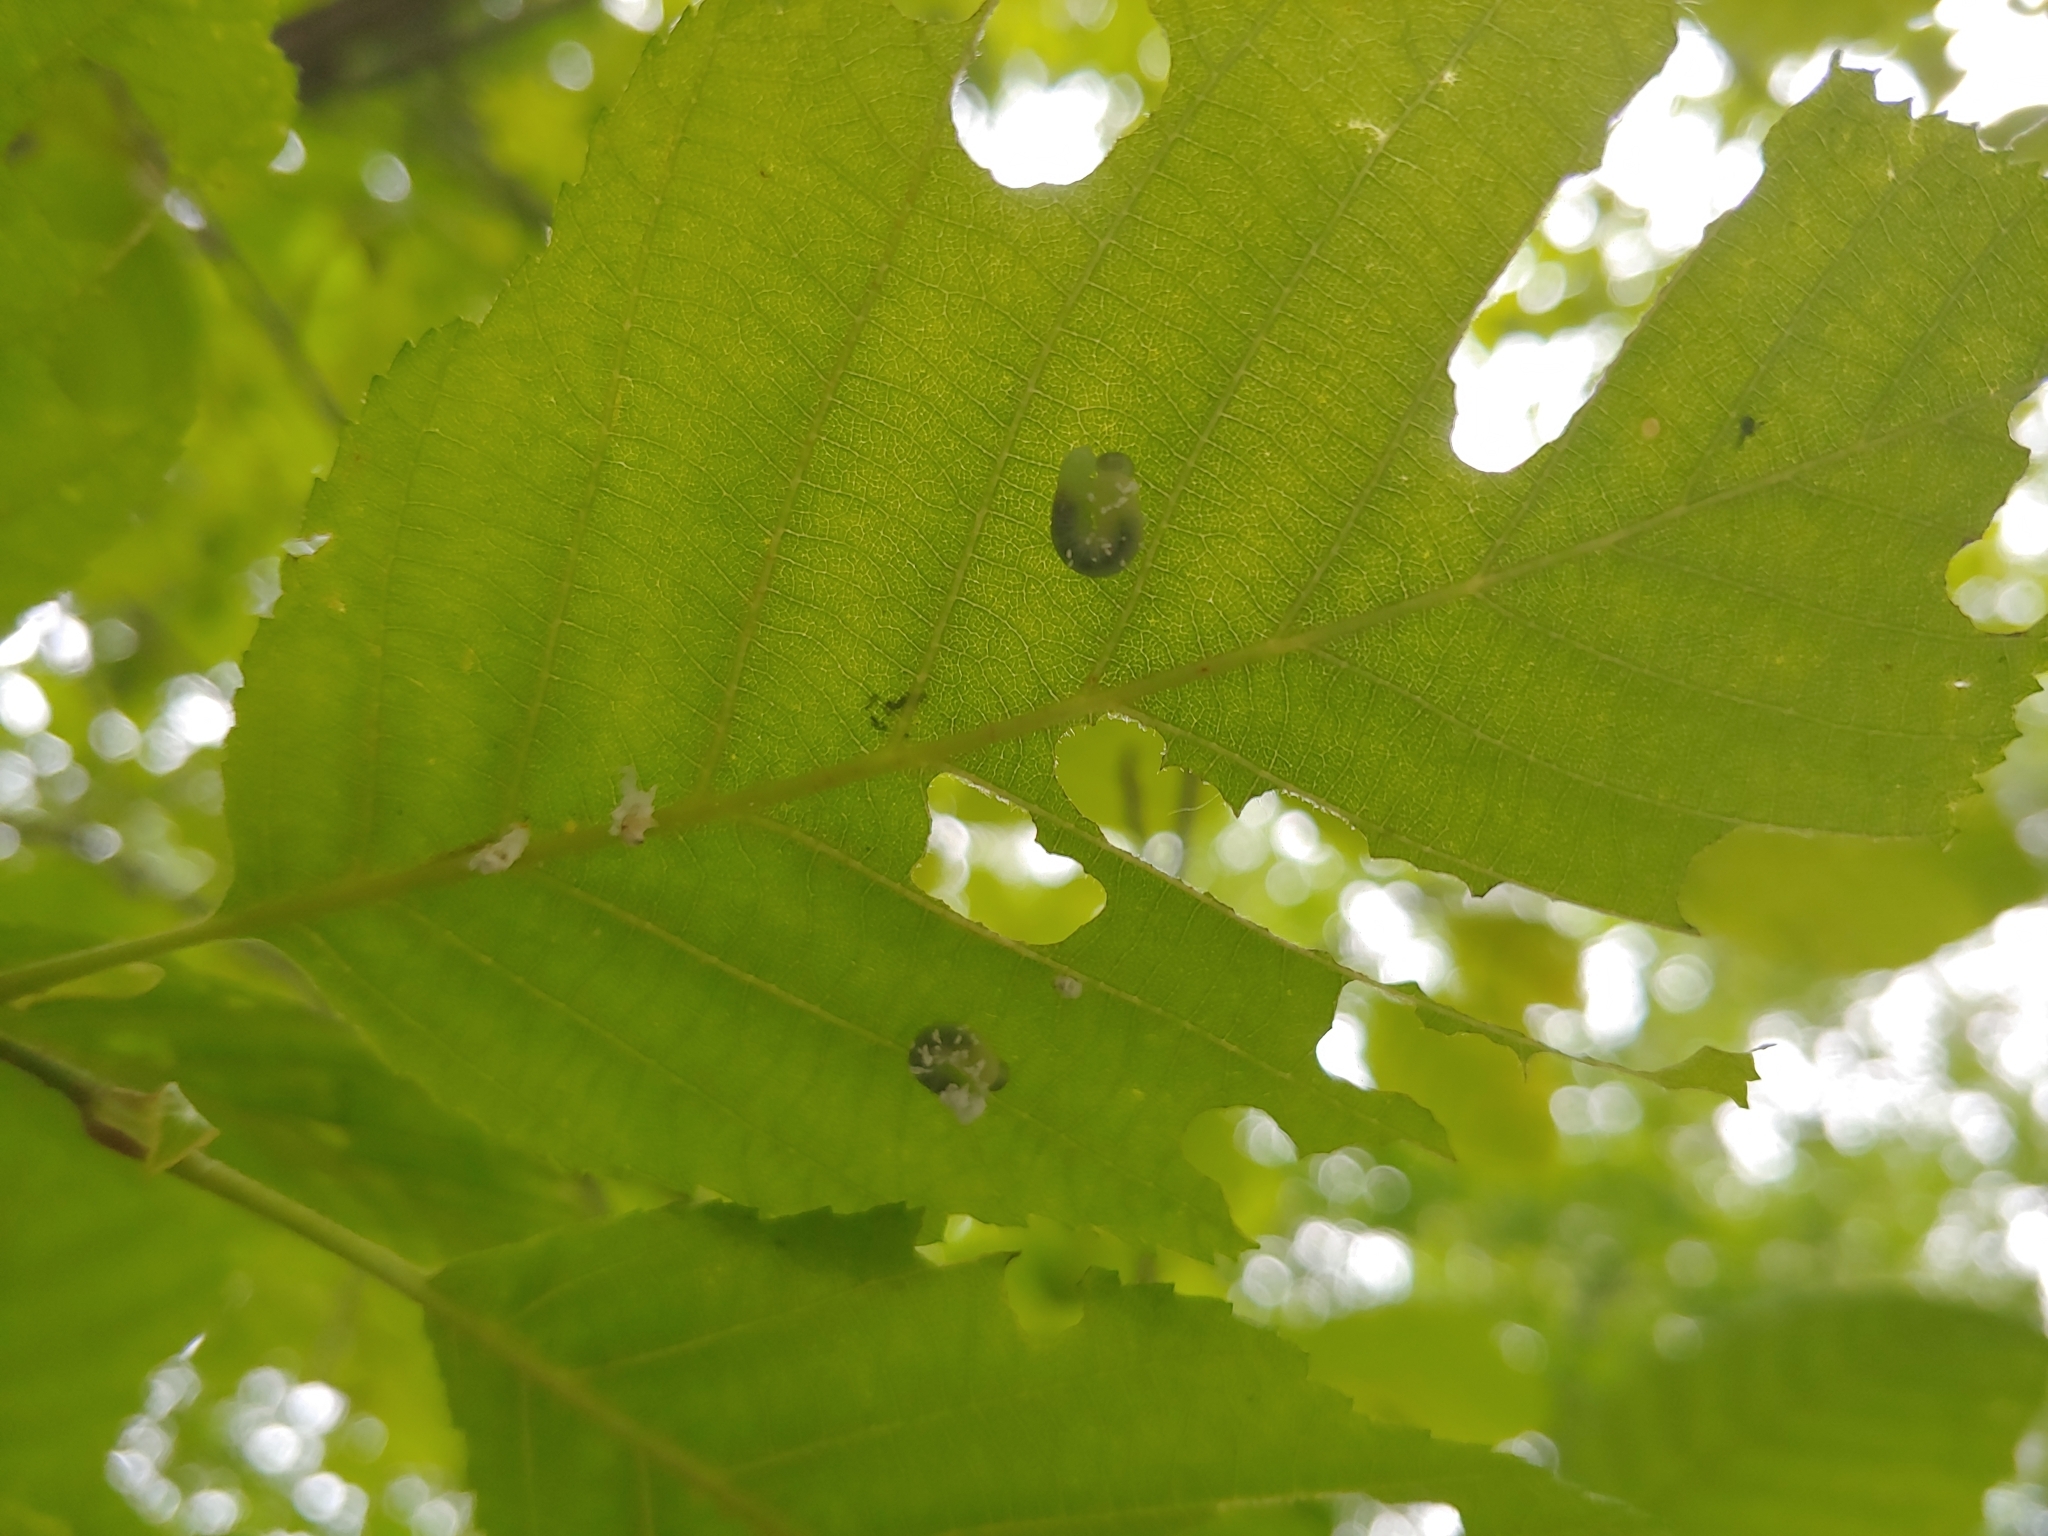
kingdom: Animalia
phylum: Arthropoda
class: Insecta
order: Hymenoptera
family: Tenthredinidae
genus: Eriocampa
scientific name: Eriocampa ovata
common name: Alder wooly sawfly
